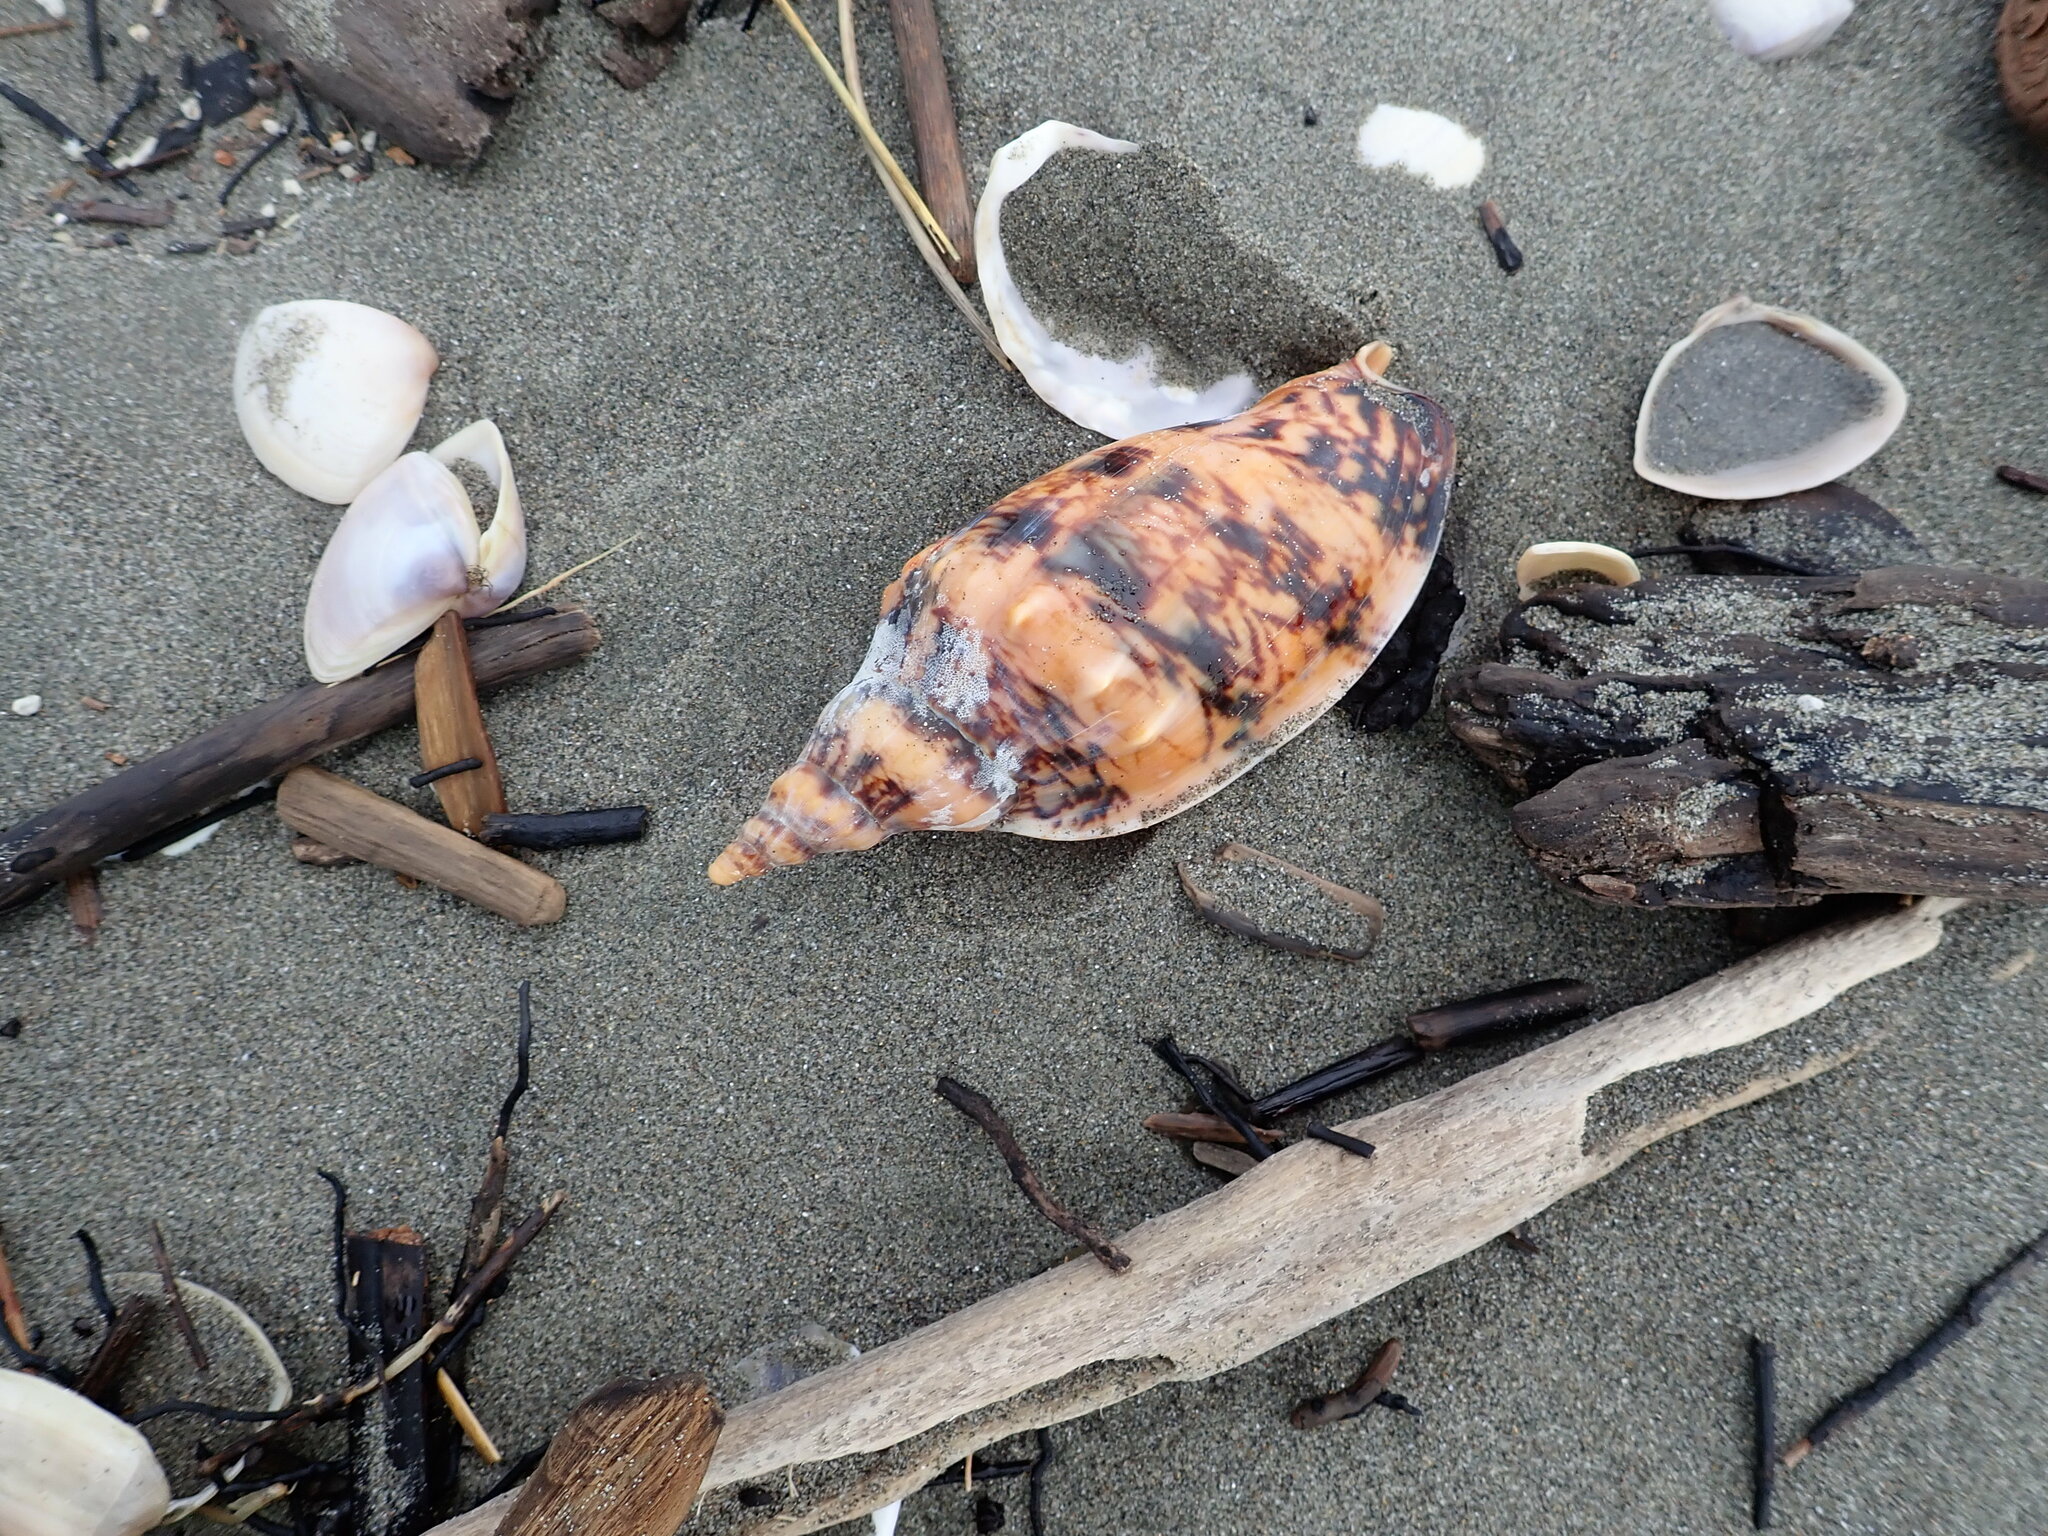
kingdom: Animalia
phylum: Mollusca
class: Gastropoda
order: Neogastropoda
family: Volutidae
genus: Alcithoe
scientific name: Alcithoe arabica
